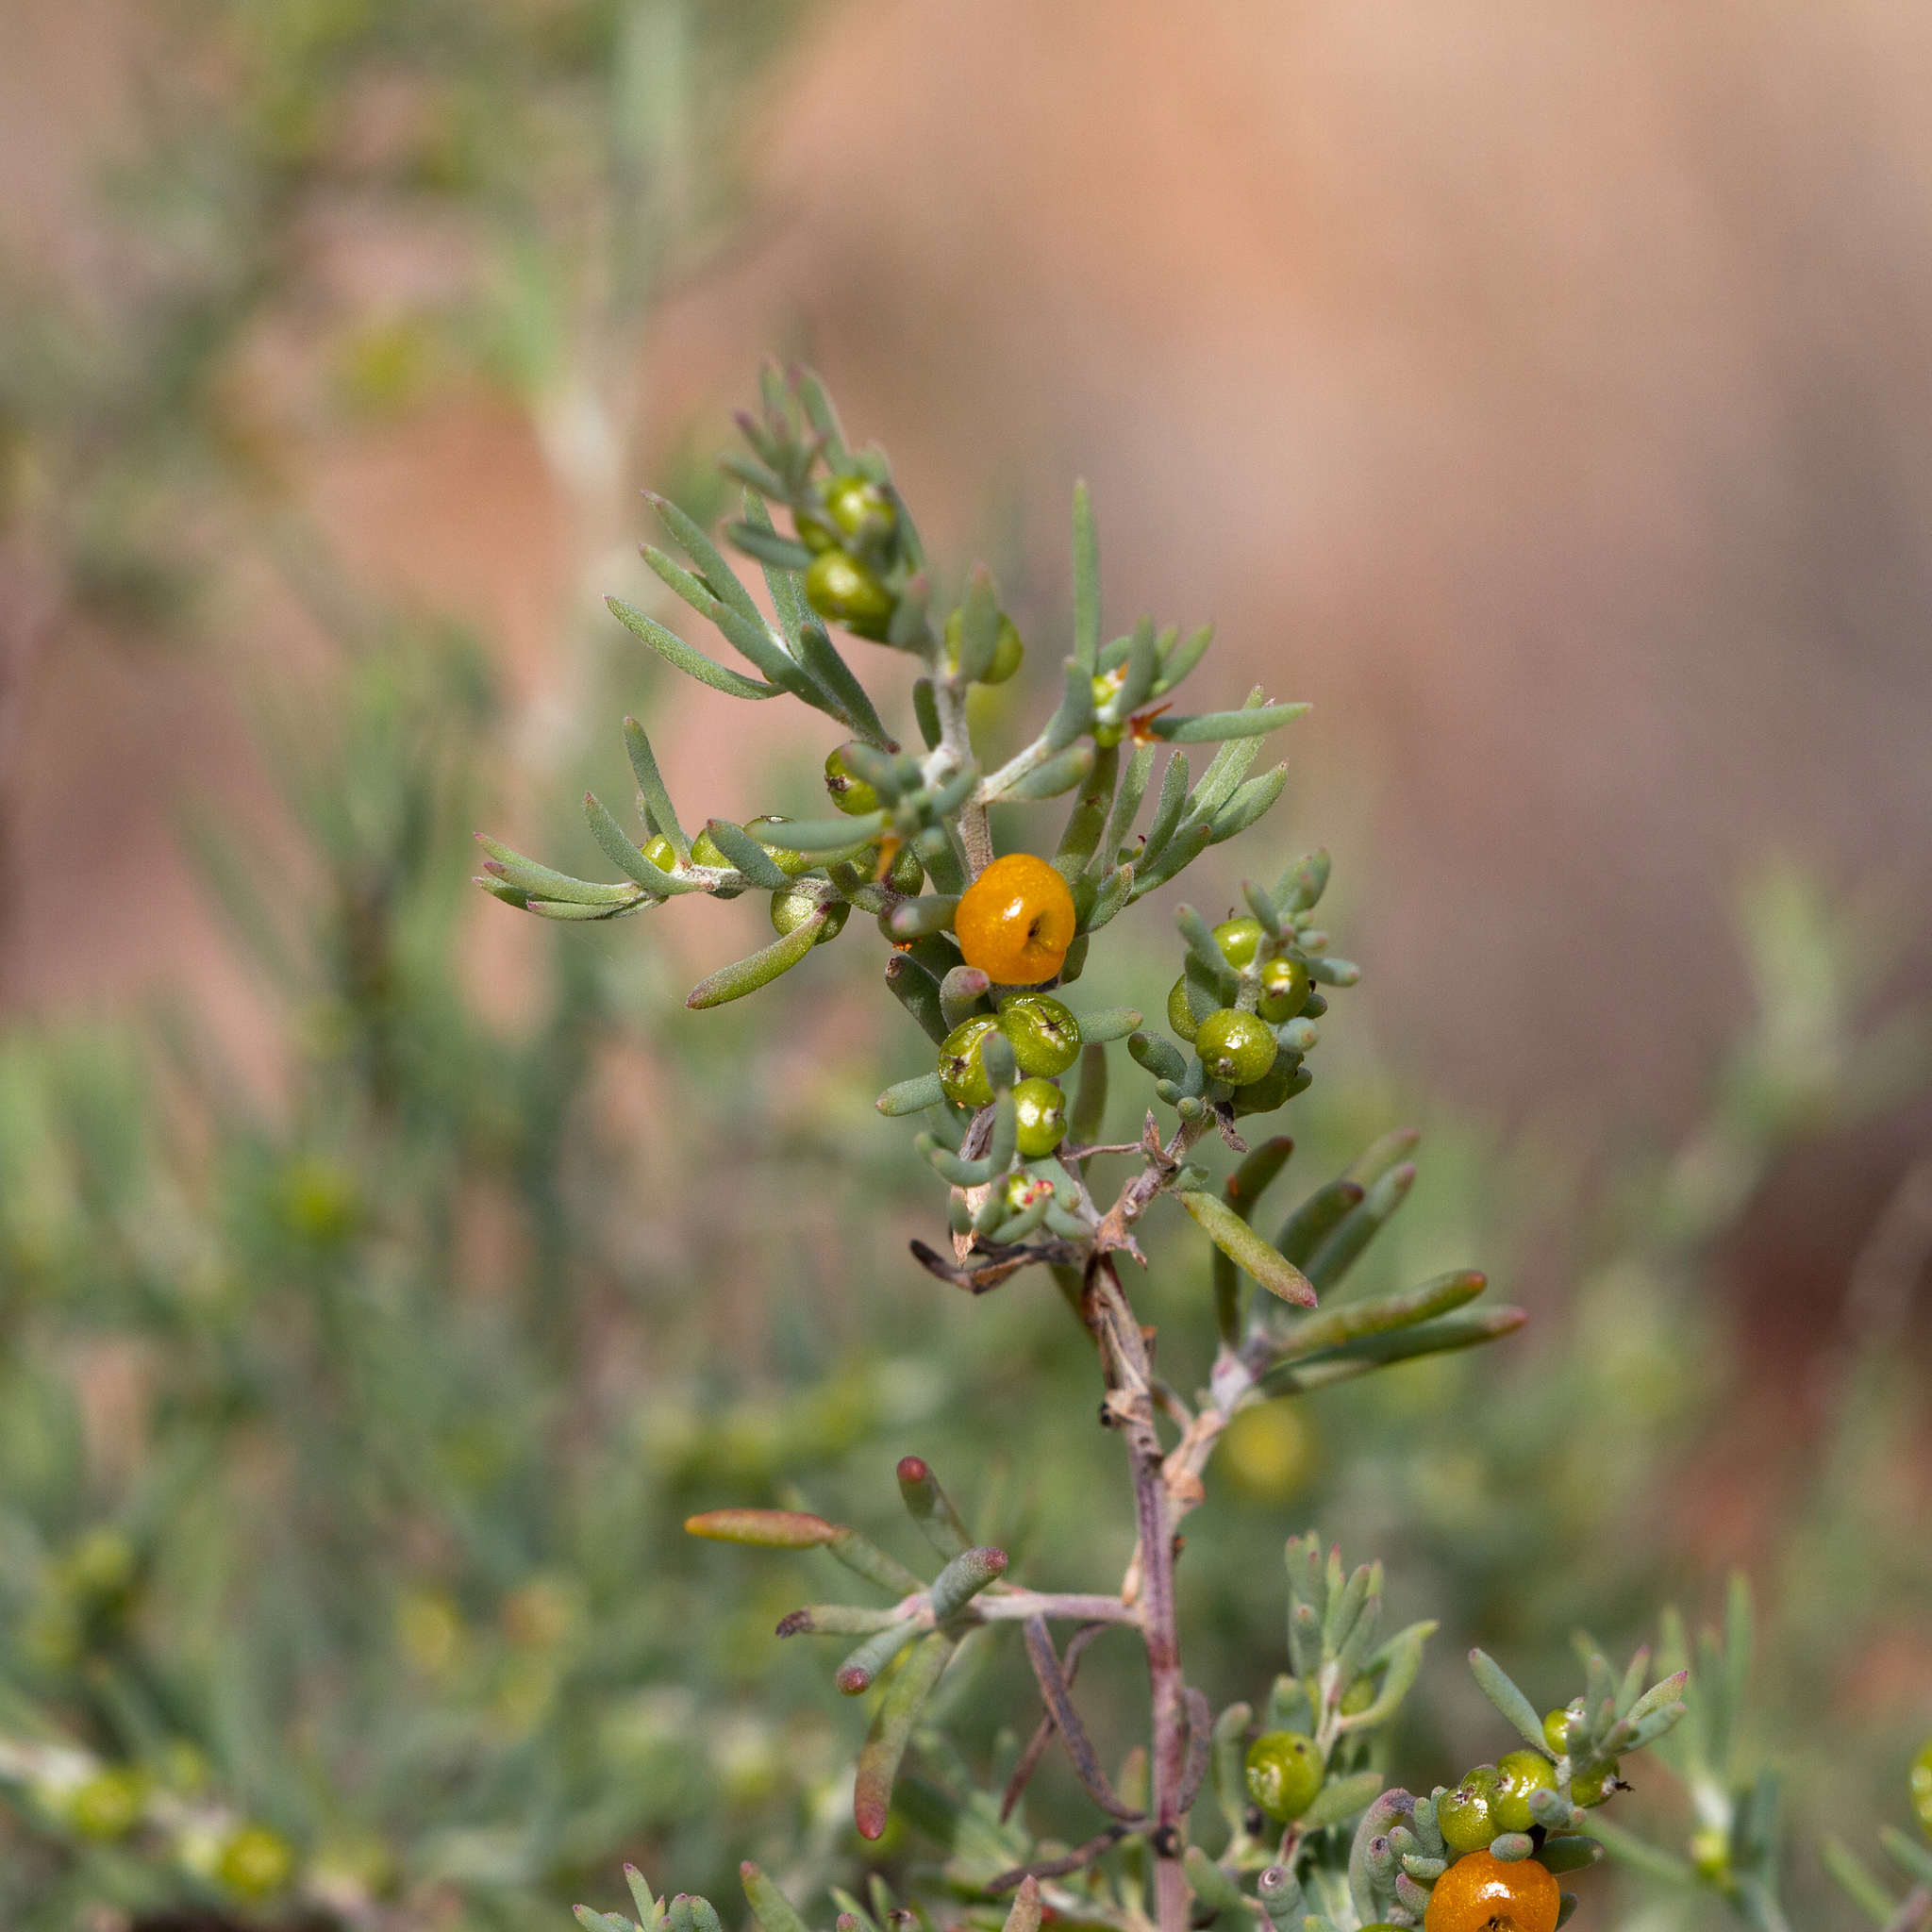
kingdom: Plantae
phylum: Tracheophyta
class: Magnoliopsida
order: Caryophyllales
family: Amaranthaceae
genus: Enchylaena
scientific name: Enchylaena tomentosa
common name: Ruby saltbush
